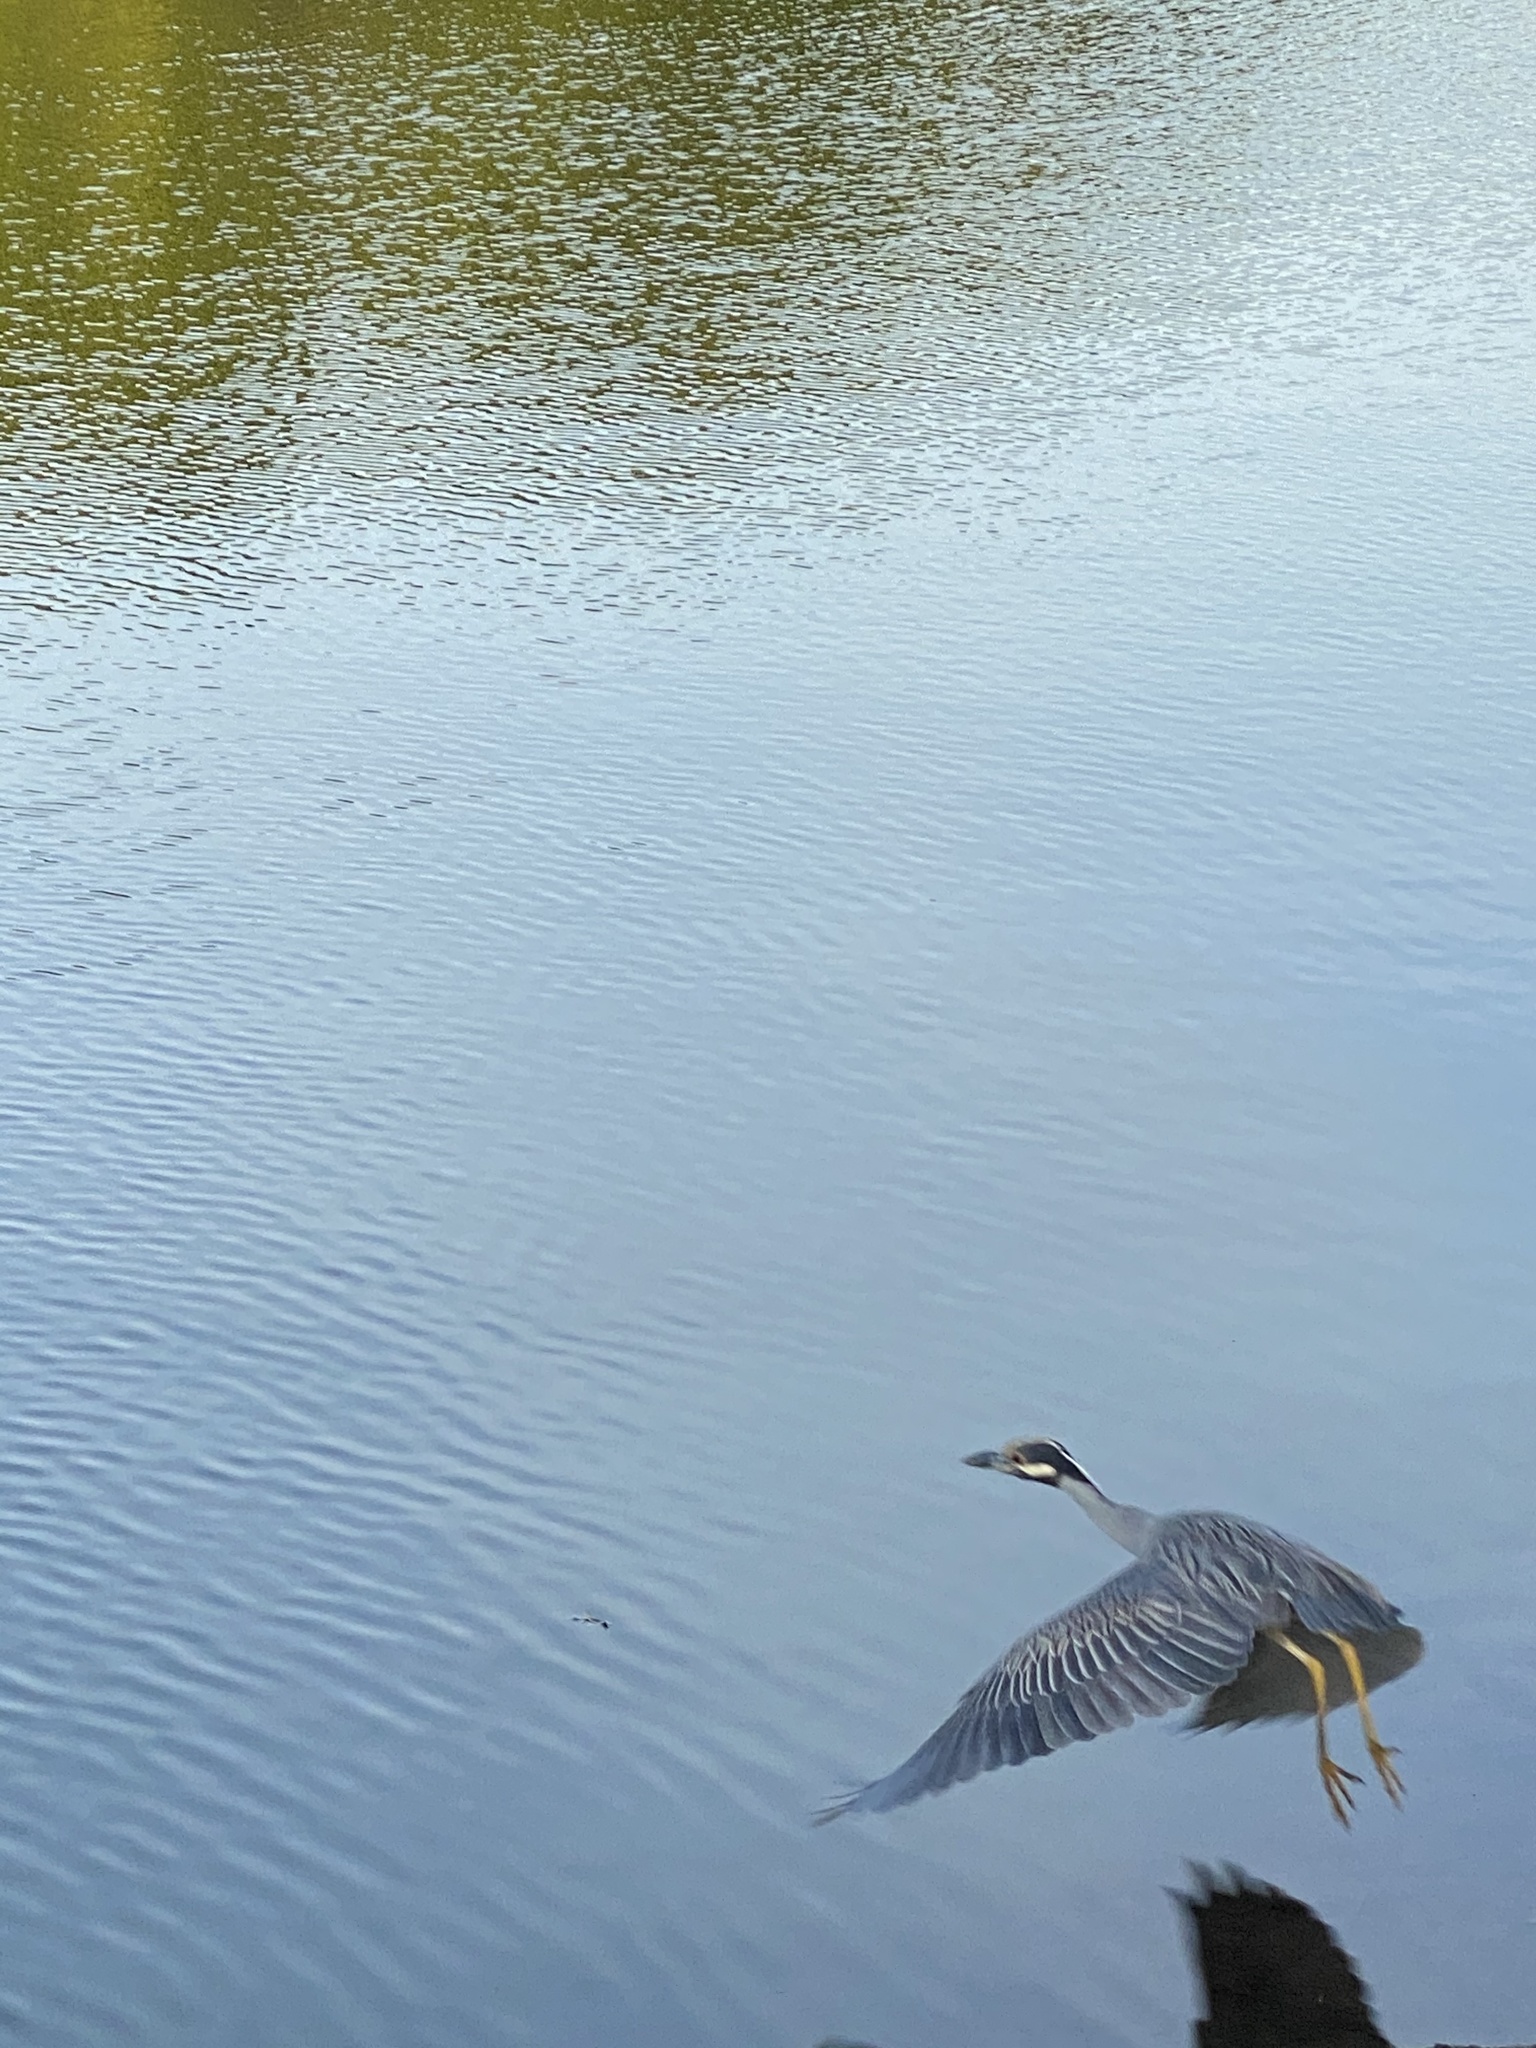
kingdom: Animalia
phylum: Chordata
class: Aves
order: Pelecaniformes
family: Ardeidae
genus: Nyctanassa
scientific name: Nyctanassa violacea
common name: Yellow-crowned night heron
